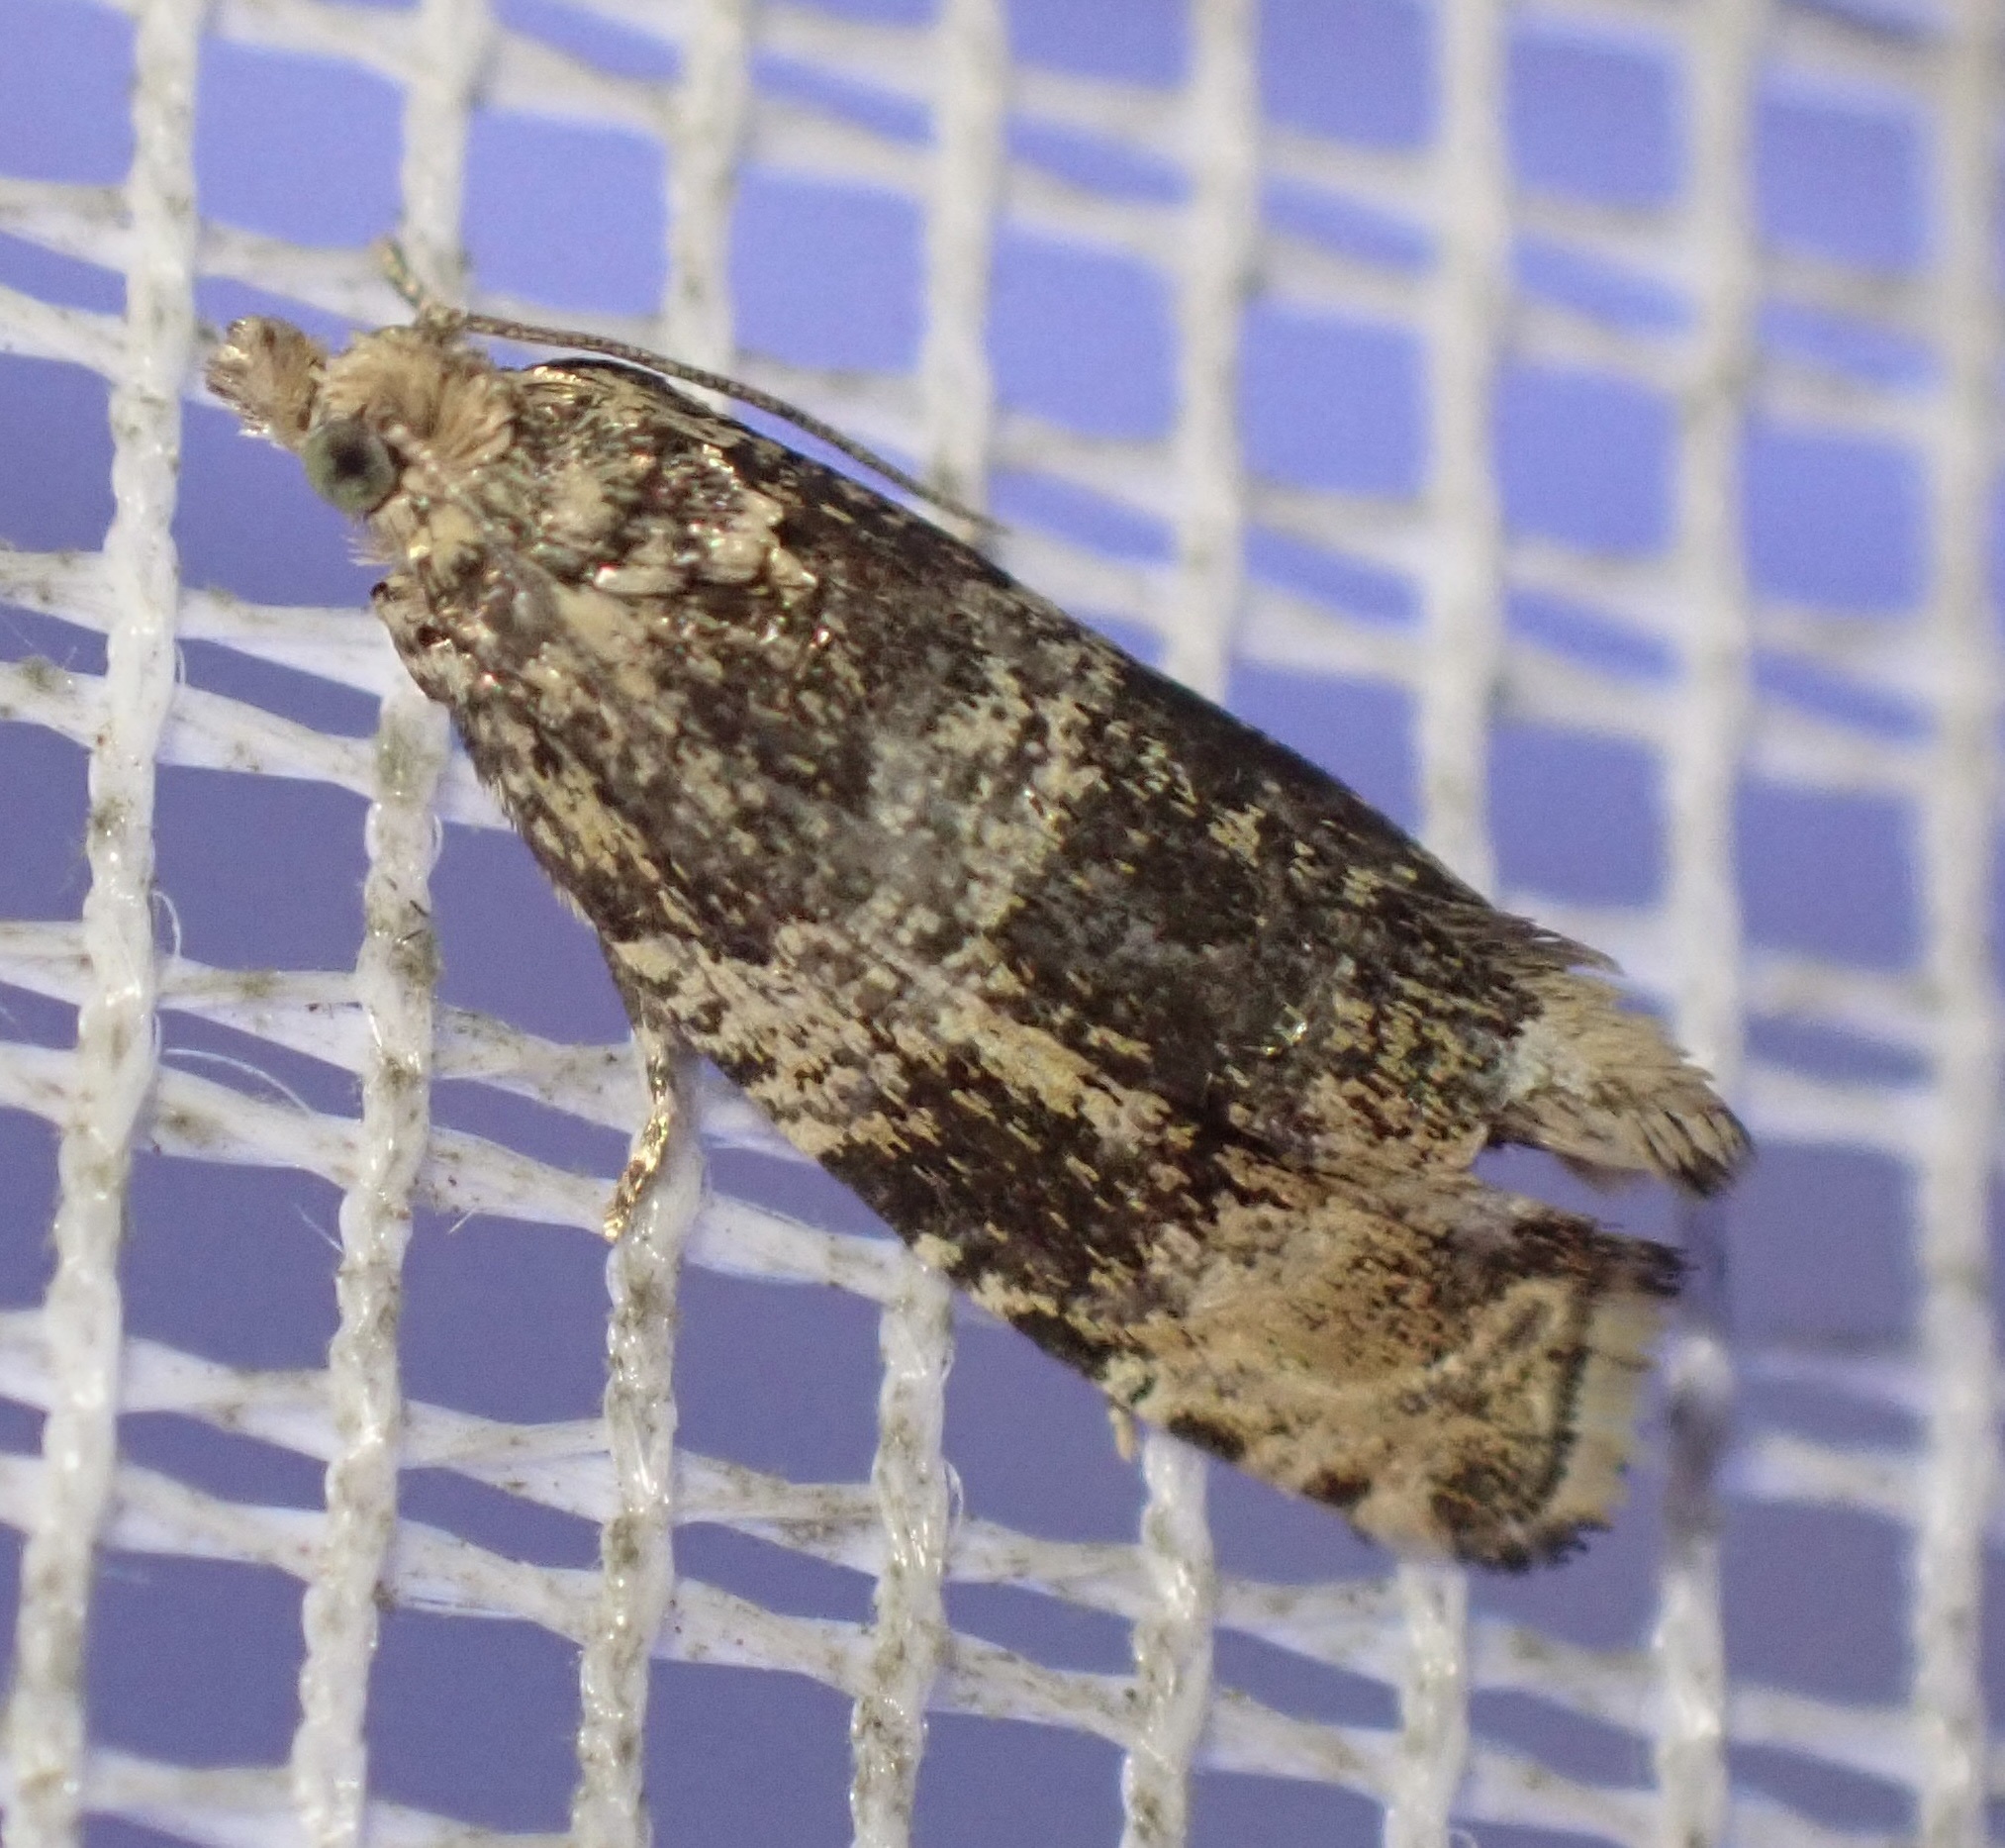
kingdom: Animalia
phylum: Arthropoda
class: Insecta
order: Lepidoptera
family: Tortricidae
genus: Syricoris
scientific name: Syricoris lacunana
